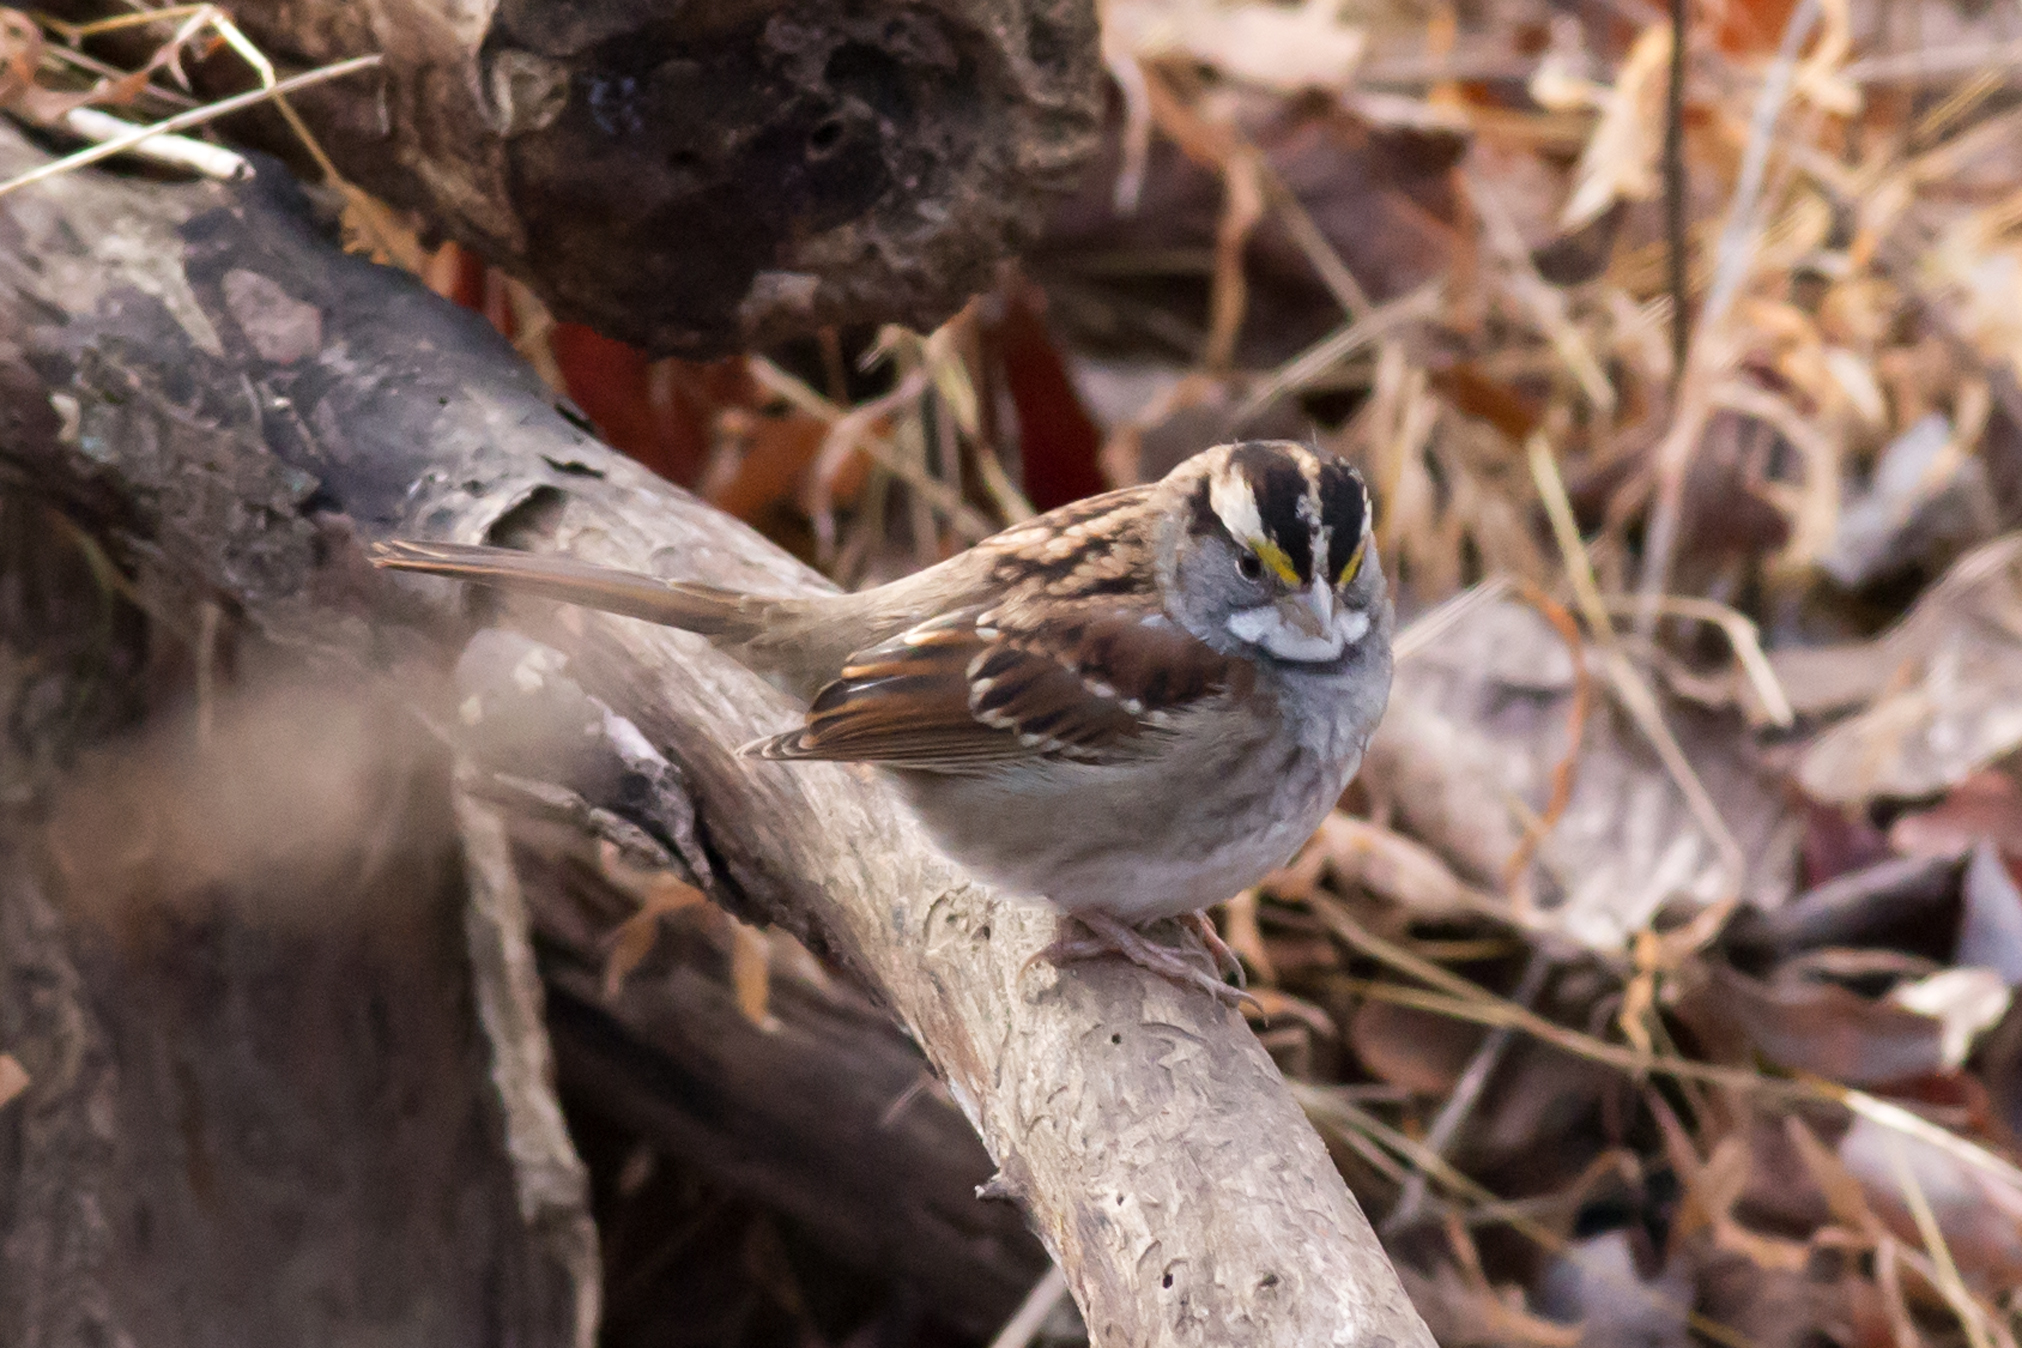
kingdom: Animalia
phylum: Chordata
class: Aves
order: Passeriformes
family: Passerellidae
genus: Zonotrichia
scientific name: Zonotrichia albicollis
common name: White-throated sparrow
